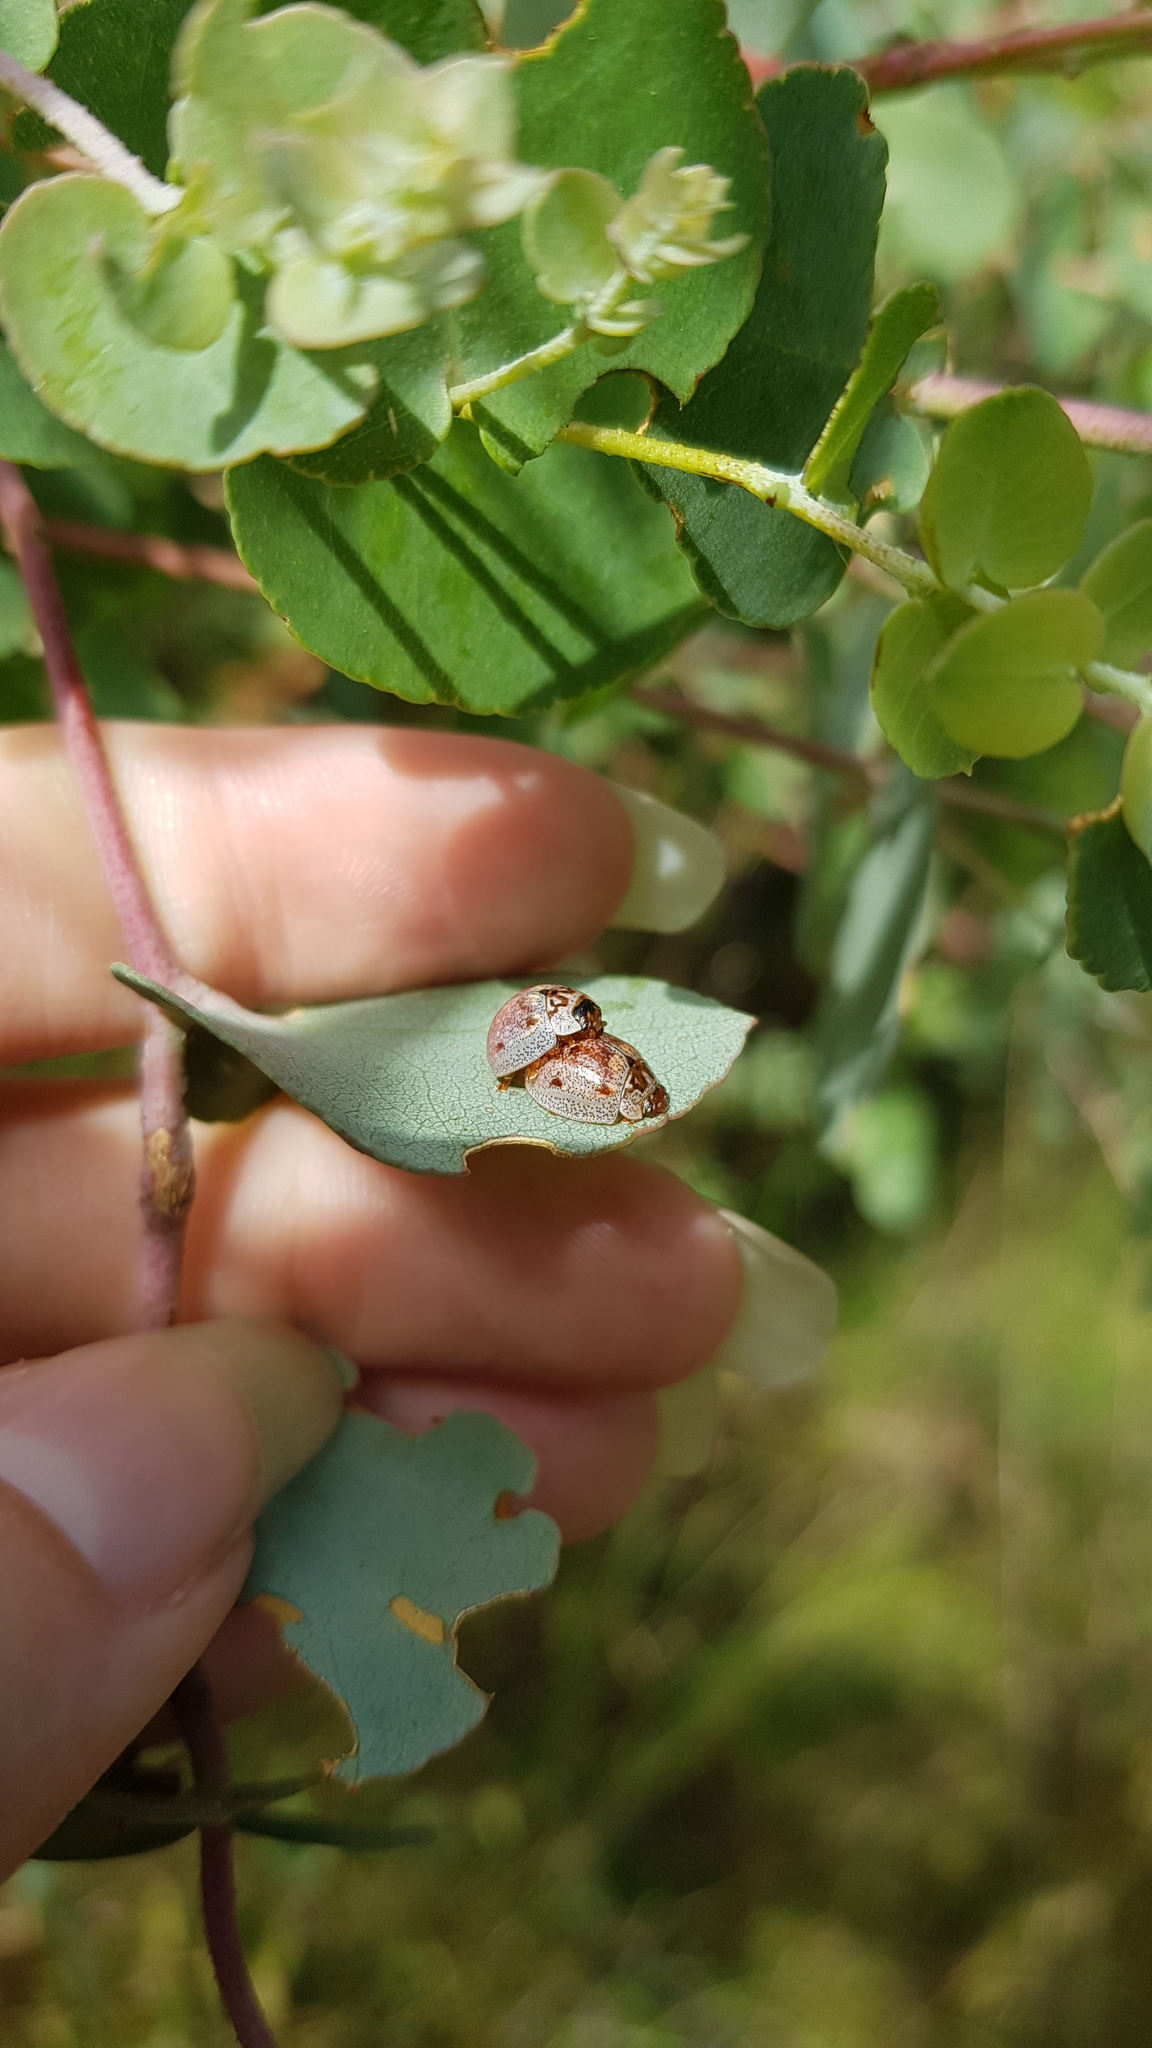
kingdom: Animalia
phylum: Arthropoda
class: Insecta
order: Coleoptera
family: Chrysomelidae
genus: Paropsisterna
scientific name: Paropsisterna m-fuscum
